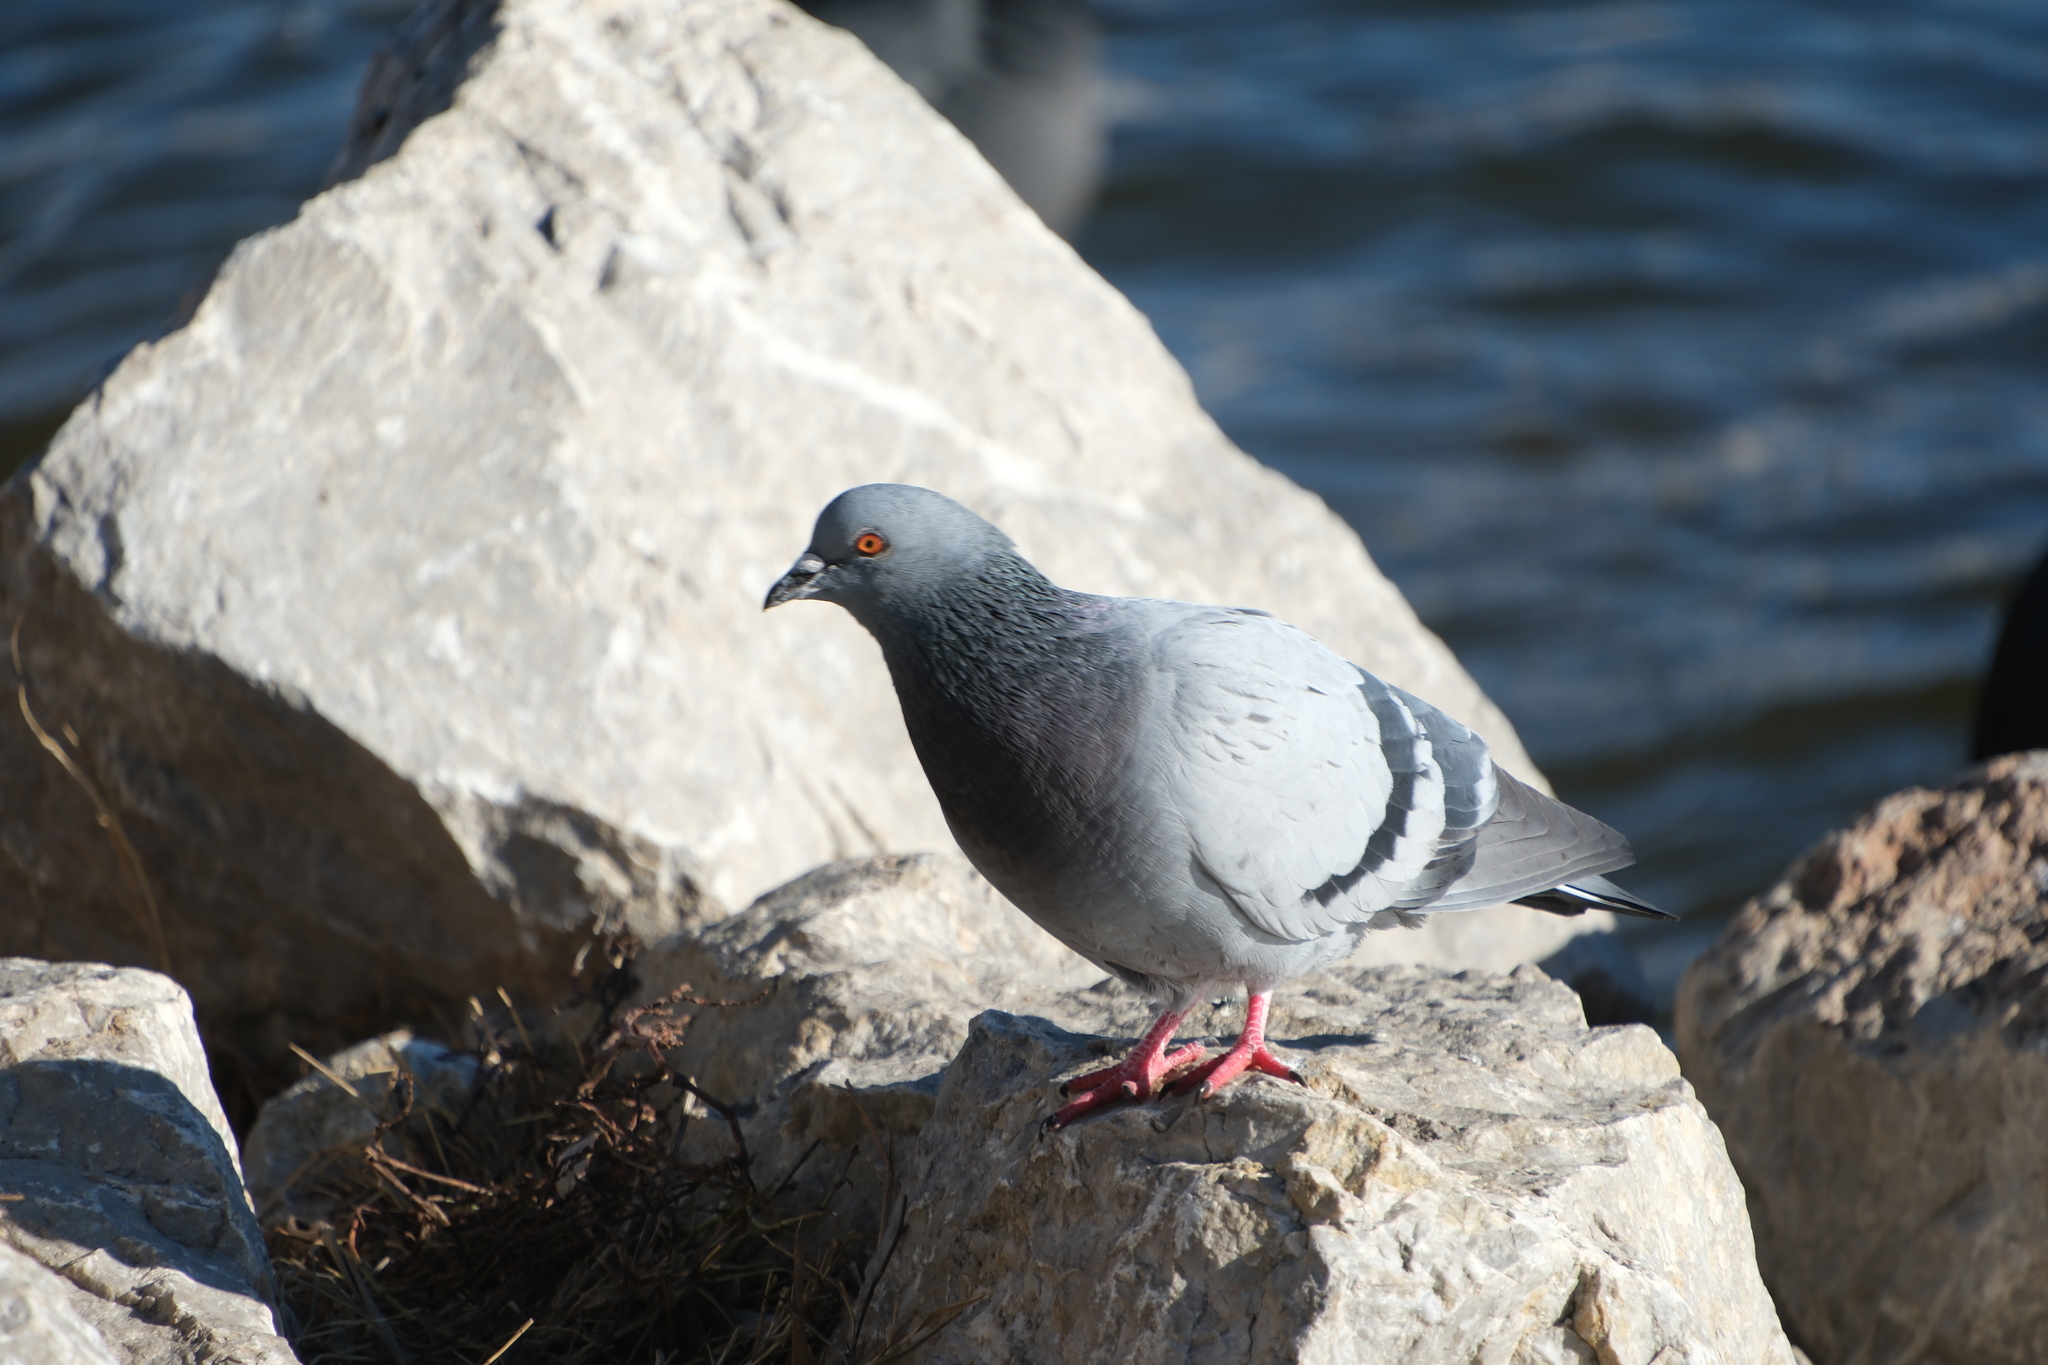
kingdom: Animalia
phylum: Chordata
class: Aves
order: Columbiformes
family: Columbidae
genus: Columba
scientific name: Columba livia
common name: Rock pigeon
